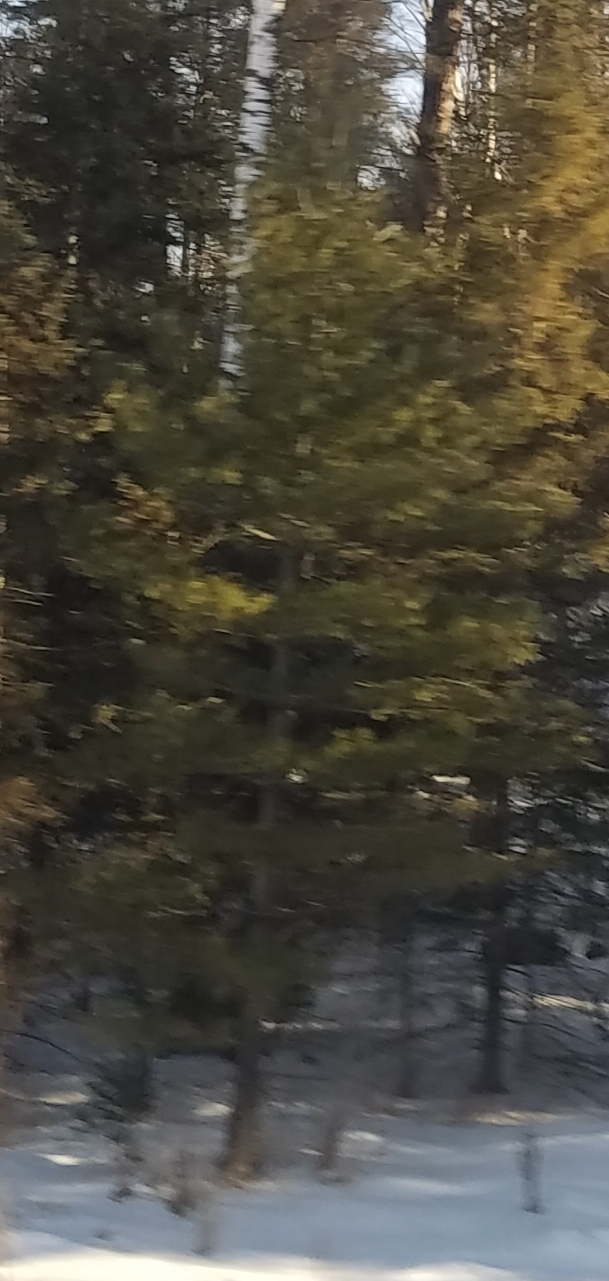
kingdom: Plantae
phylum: Tracheophyta
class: Pinopsida
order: Pinales
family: Pinaceae
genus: Pinus
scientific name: Pinus strobus
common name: Weymouth pine
